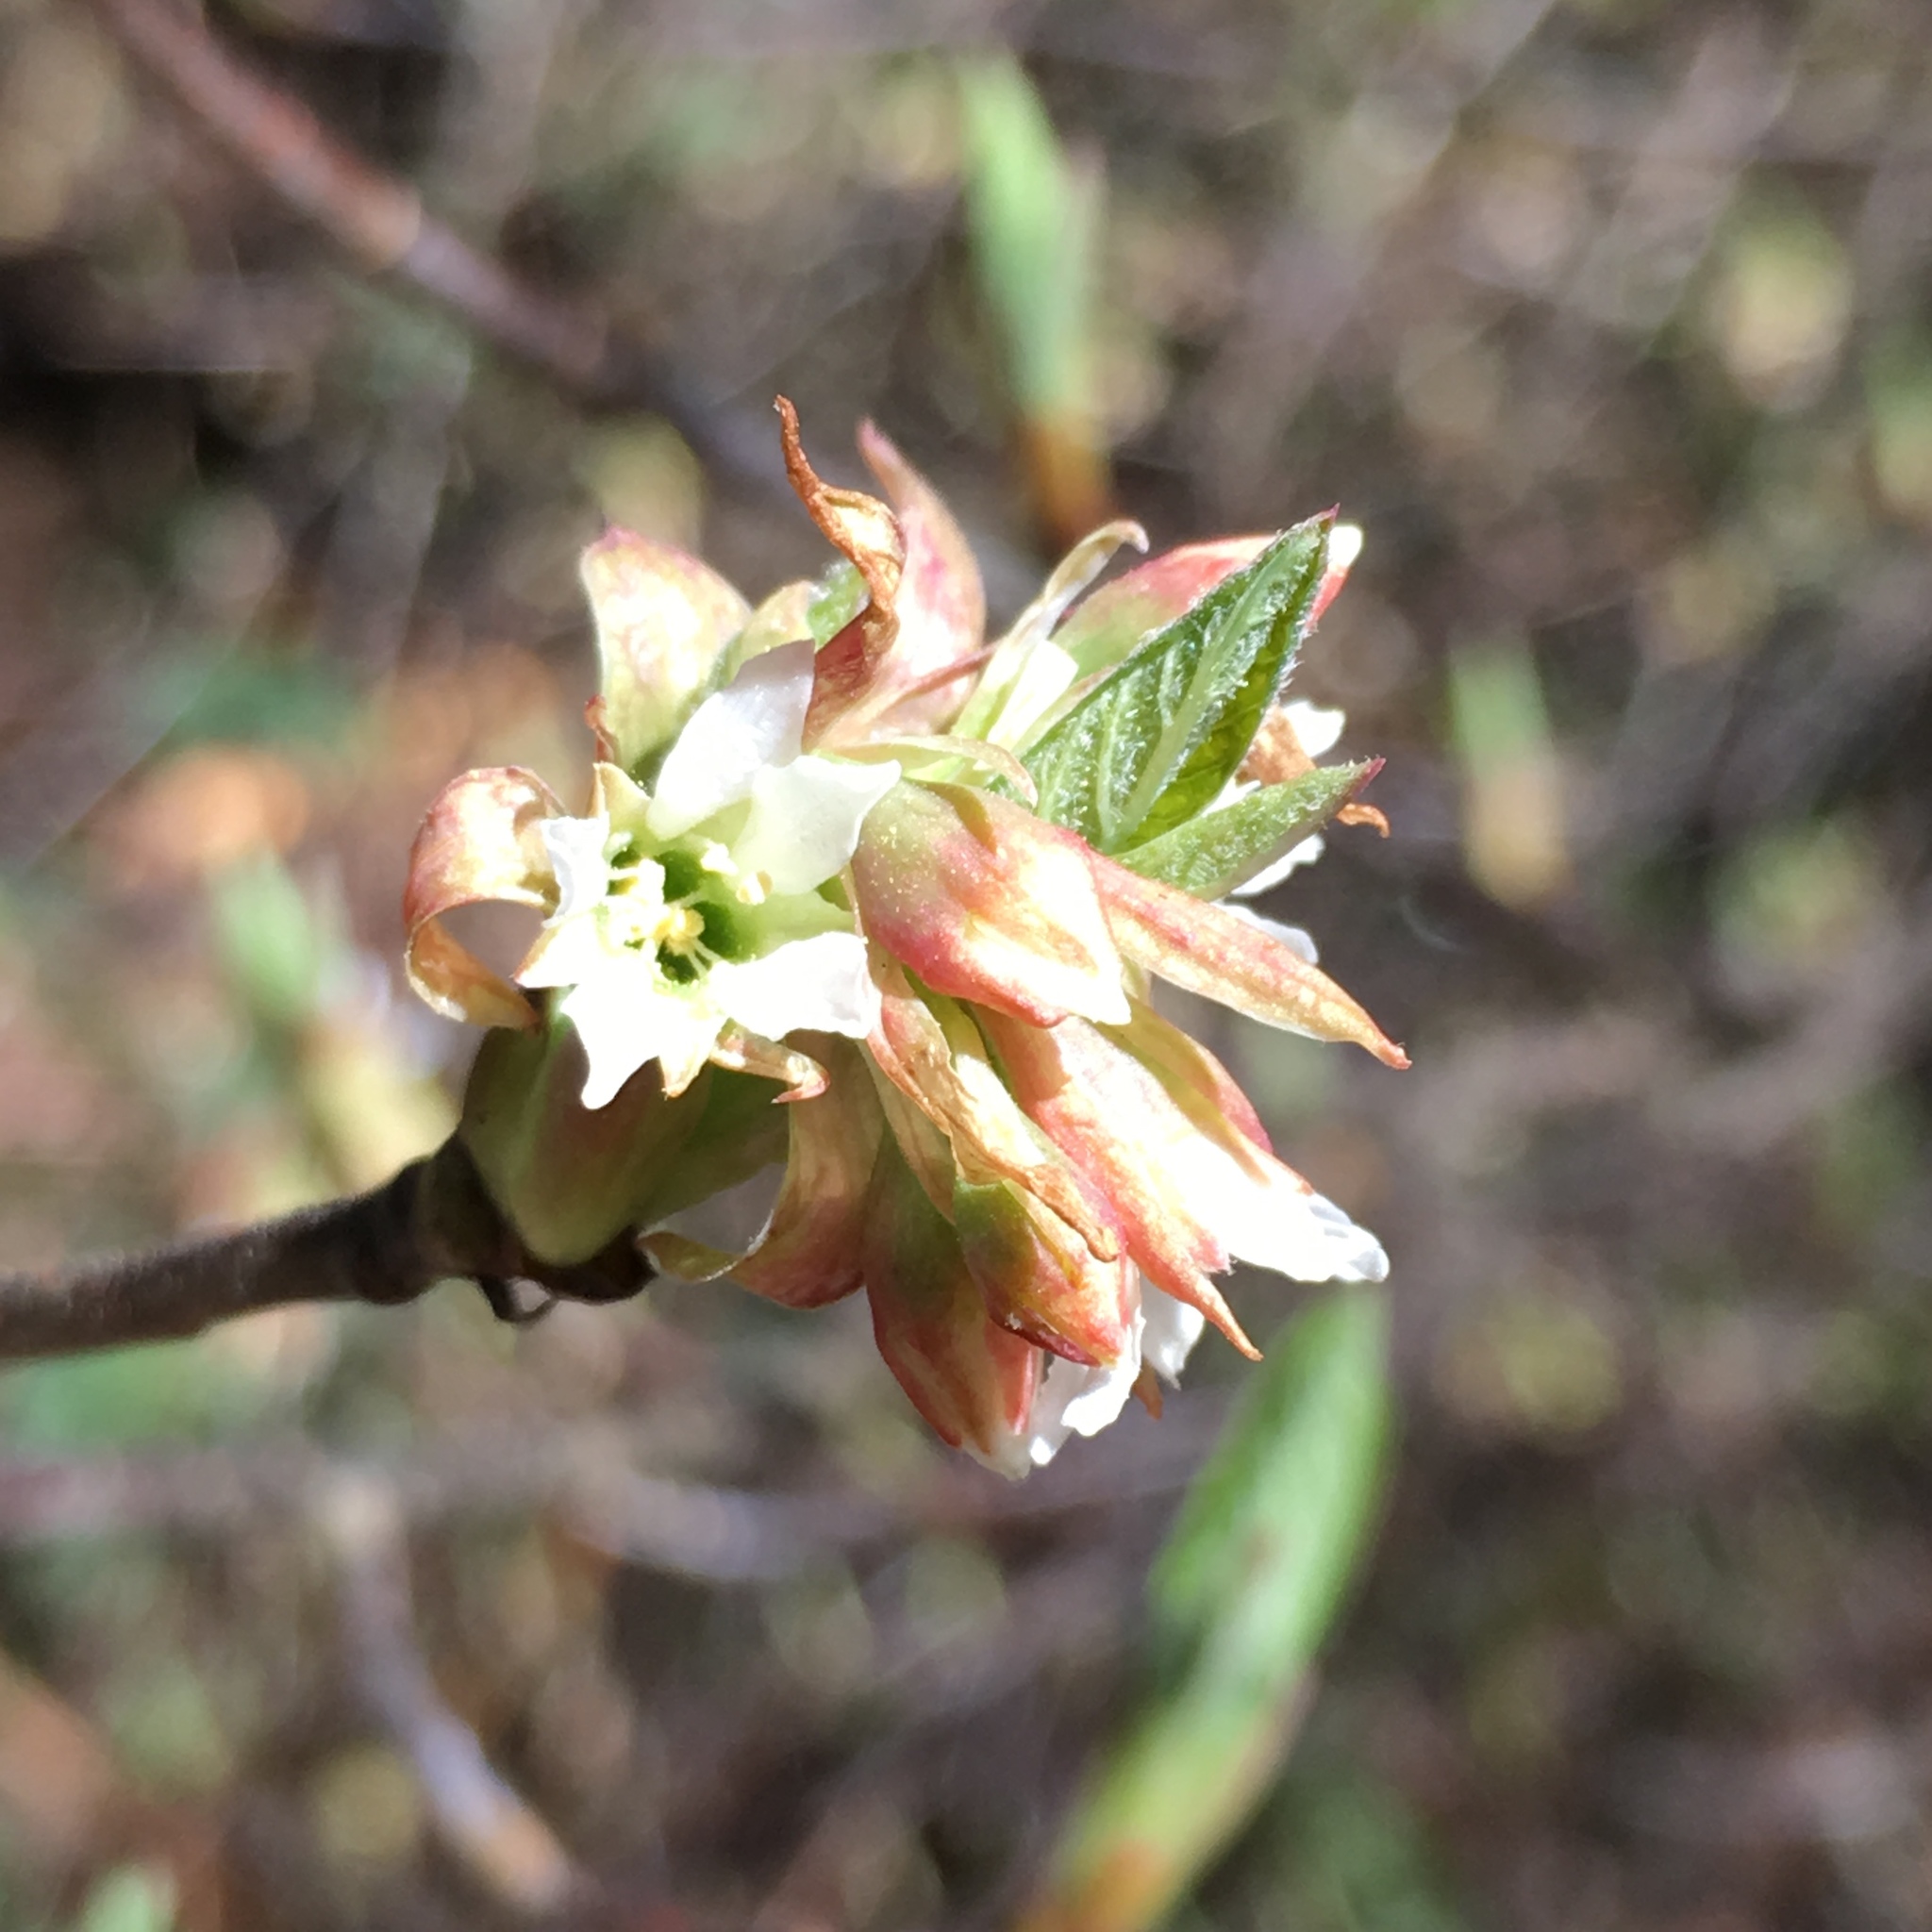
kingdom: Plantae
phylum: Tracheophyta
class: Magnoliopsida
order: Rosales
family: Rosaceae
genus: Oemleria
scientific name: Oemleria cerasiformis
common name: Osoberry
